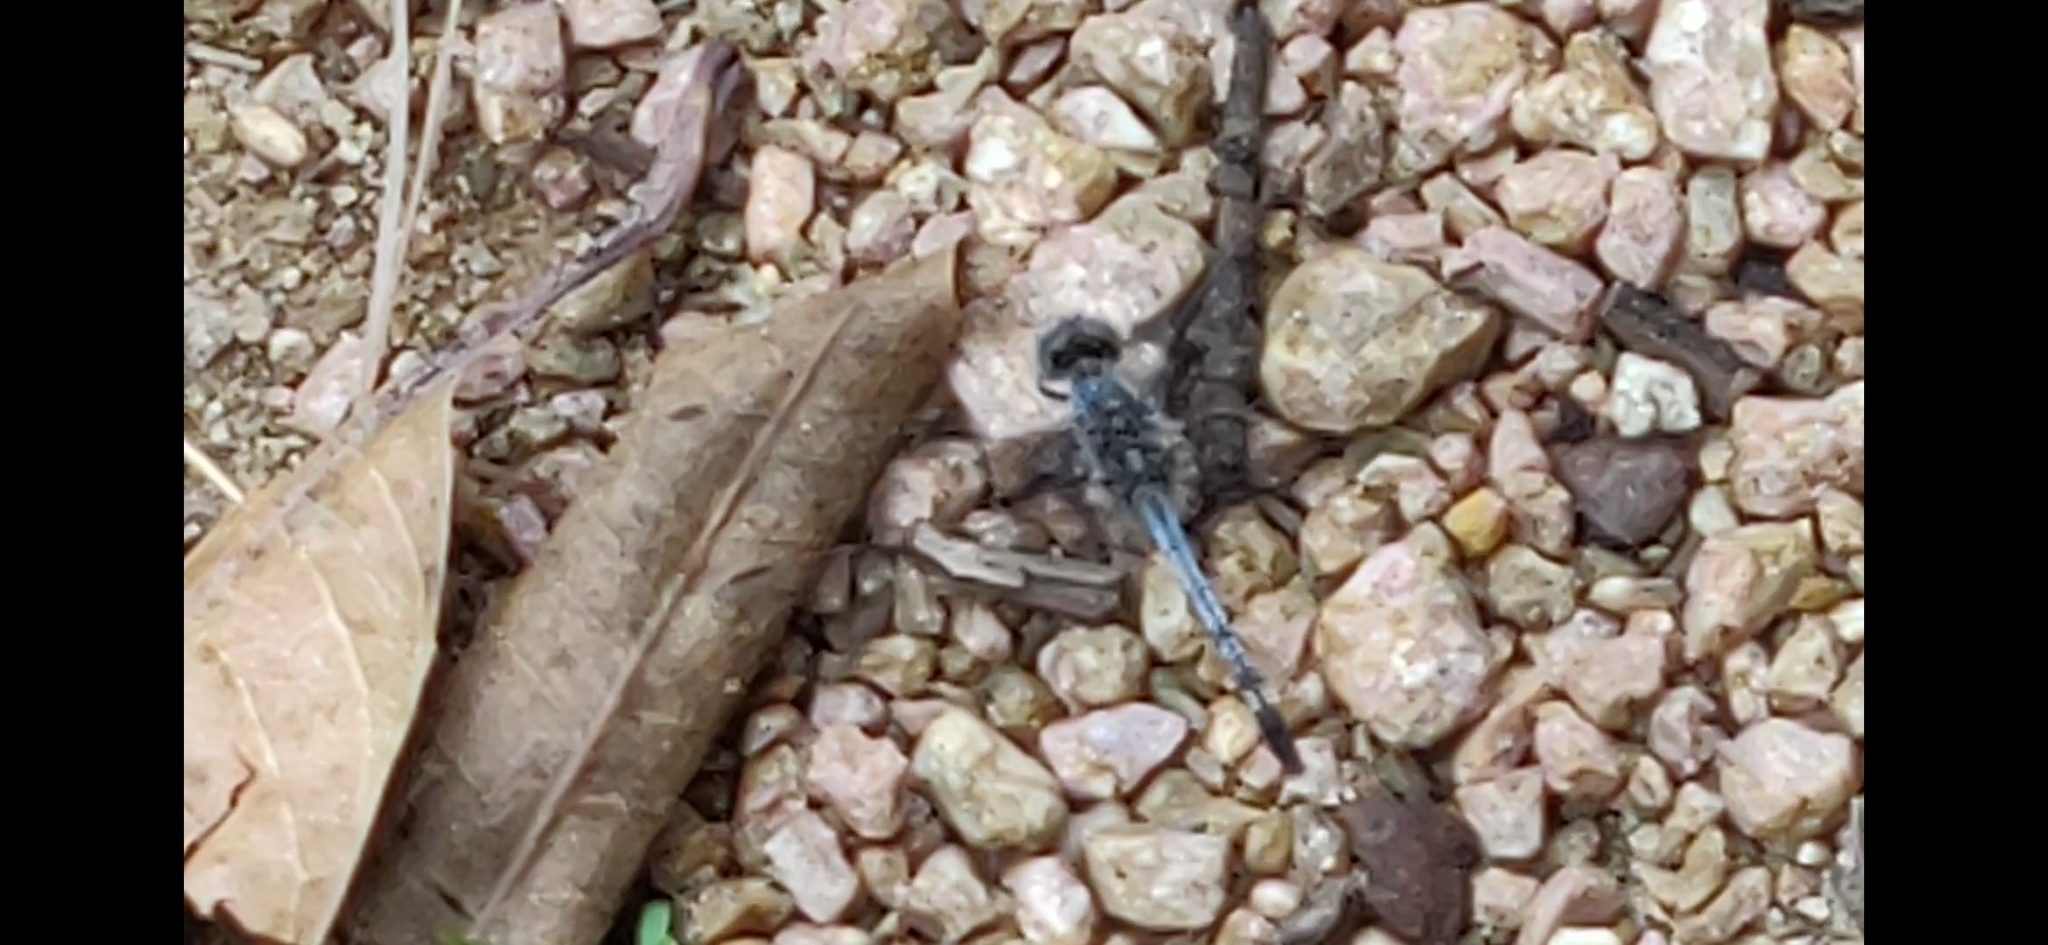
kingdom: Animalia
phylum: Arthropoda
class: Insecta
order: Odonata
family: Libellulidae
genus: Diplacodes
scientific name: Diplacodes trivialis
